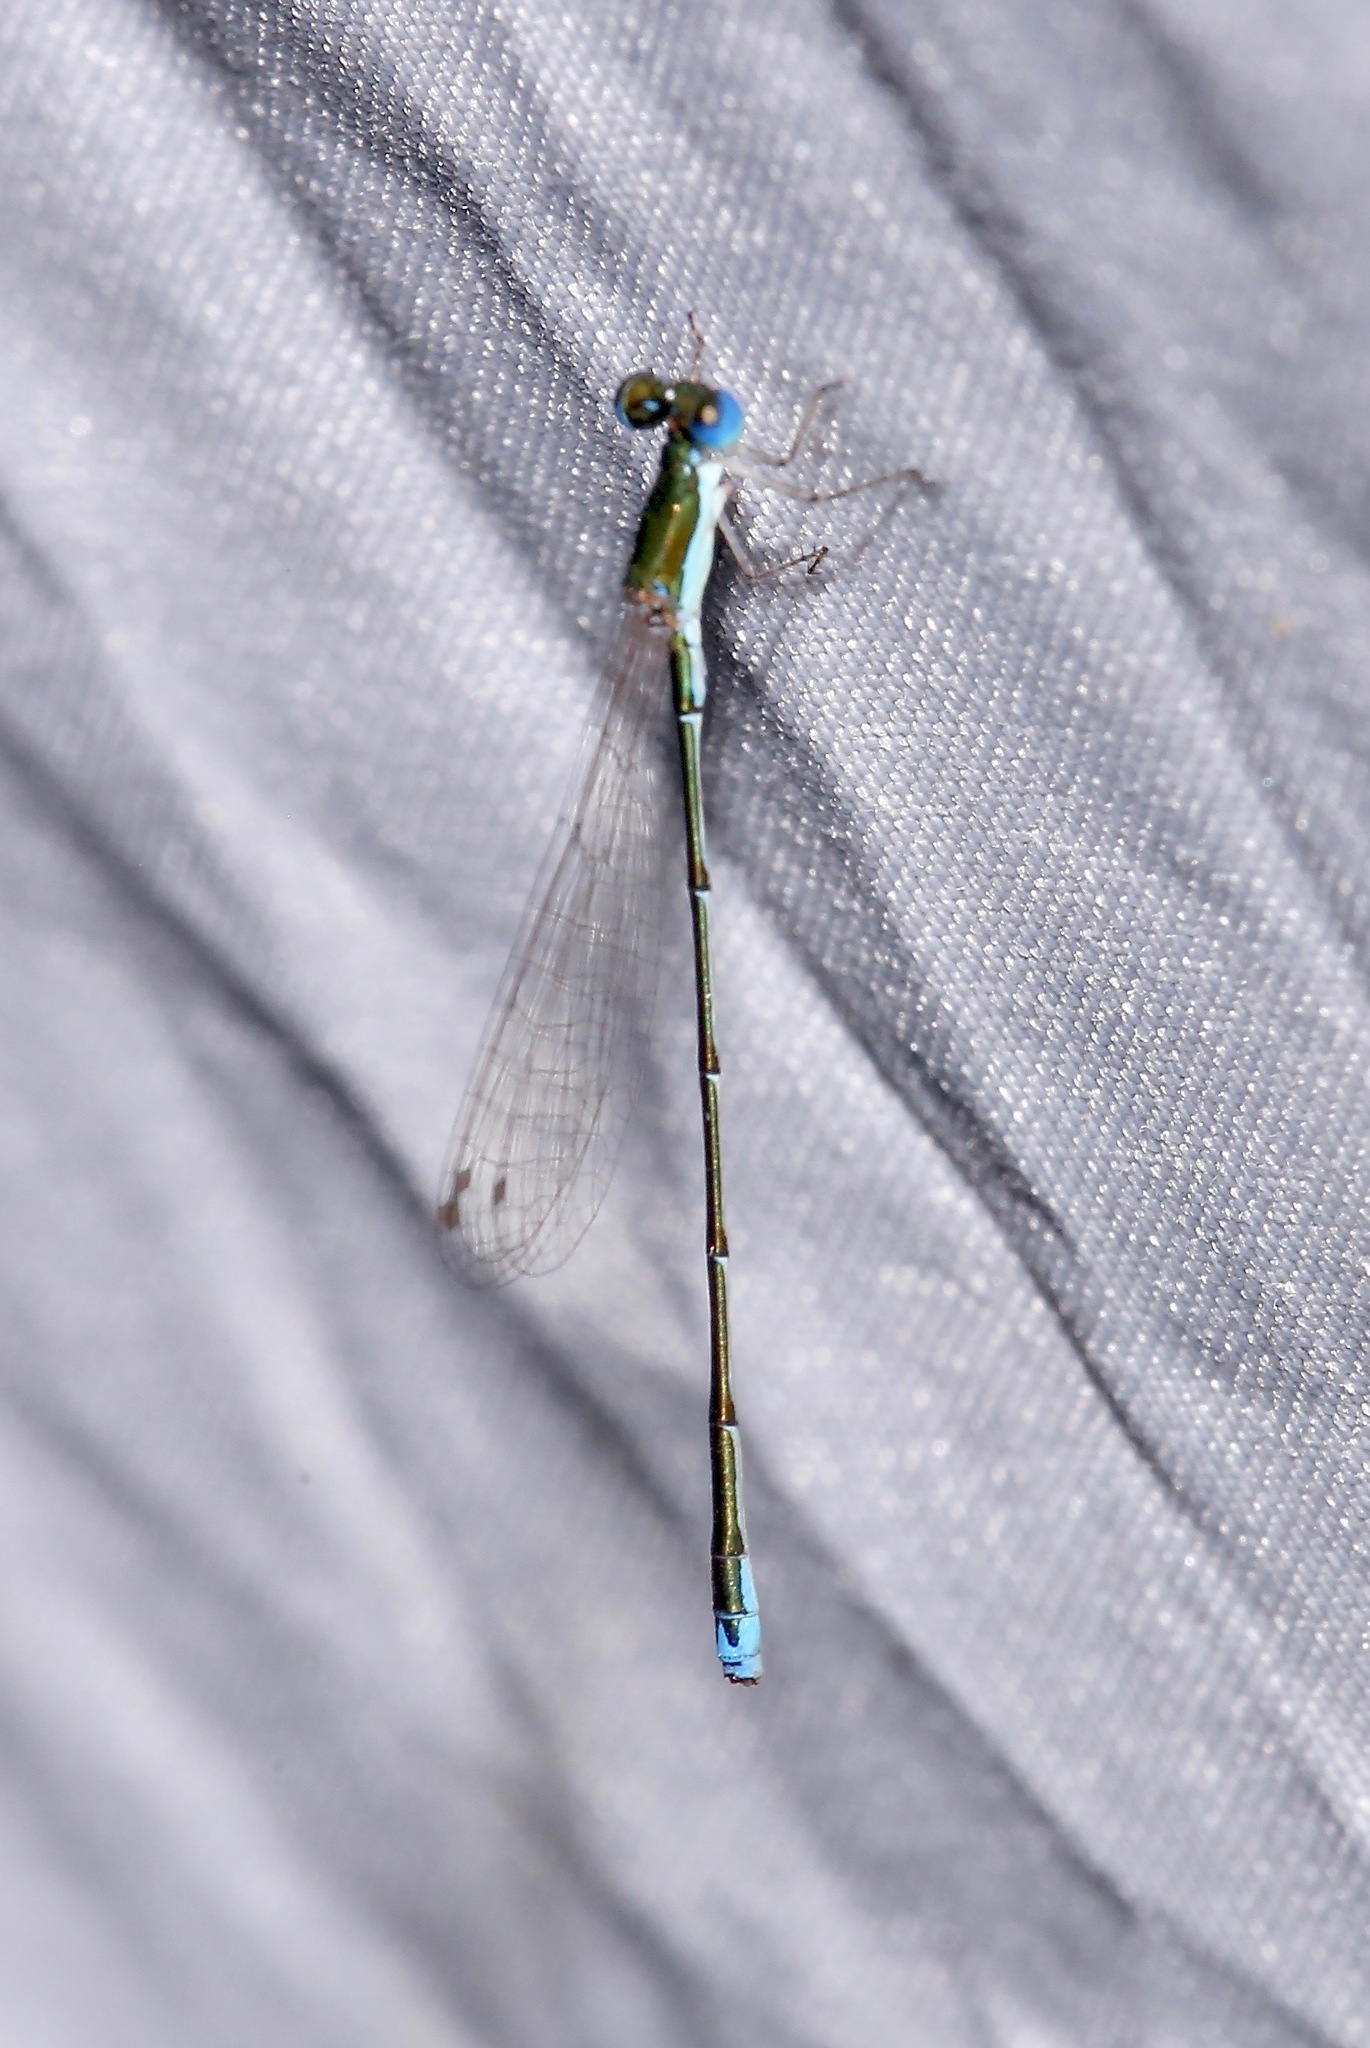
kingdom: Animalia
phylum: Arthropoda
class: Insecta
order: Odonata
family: Coenagrionidae
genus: Nehalennia
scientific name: Nehalennia integricollis
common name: Southern sprite
